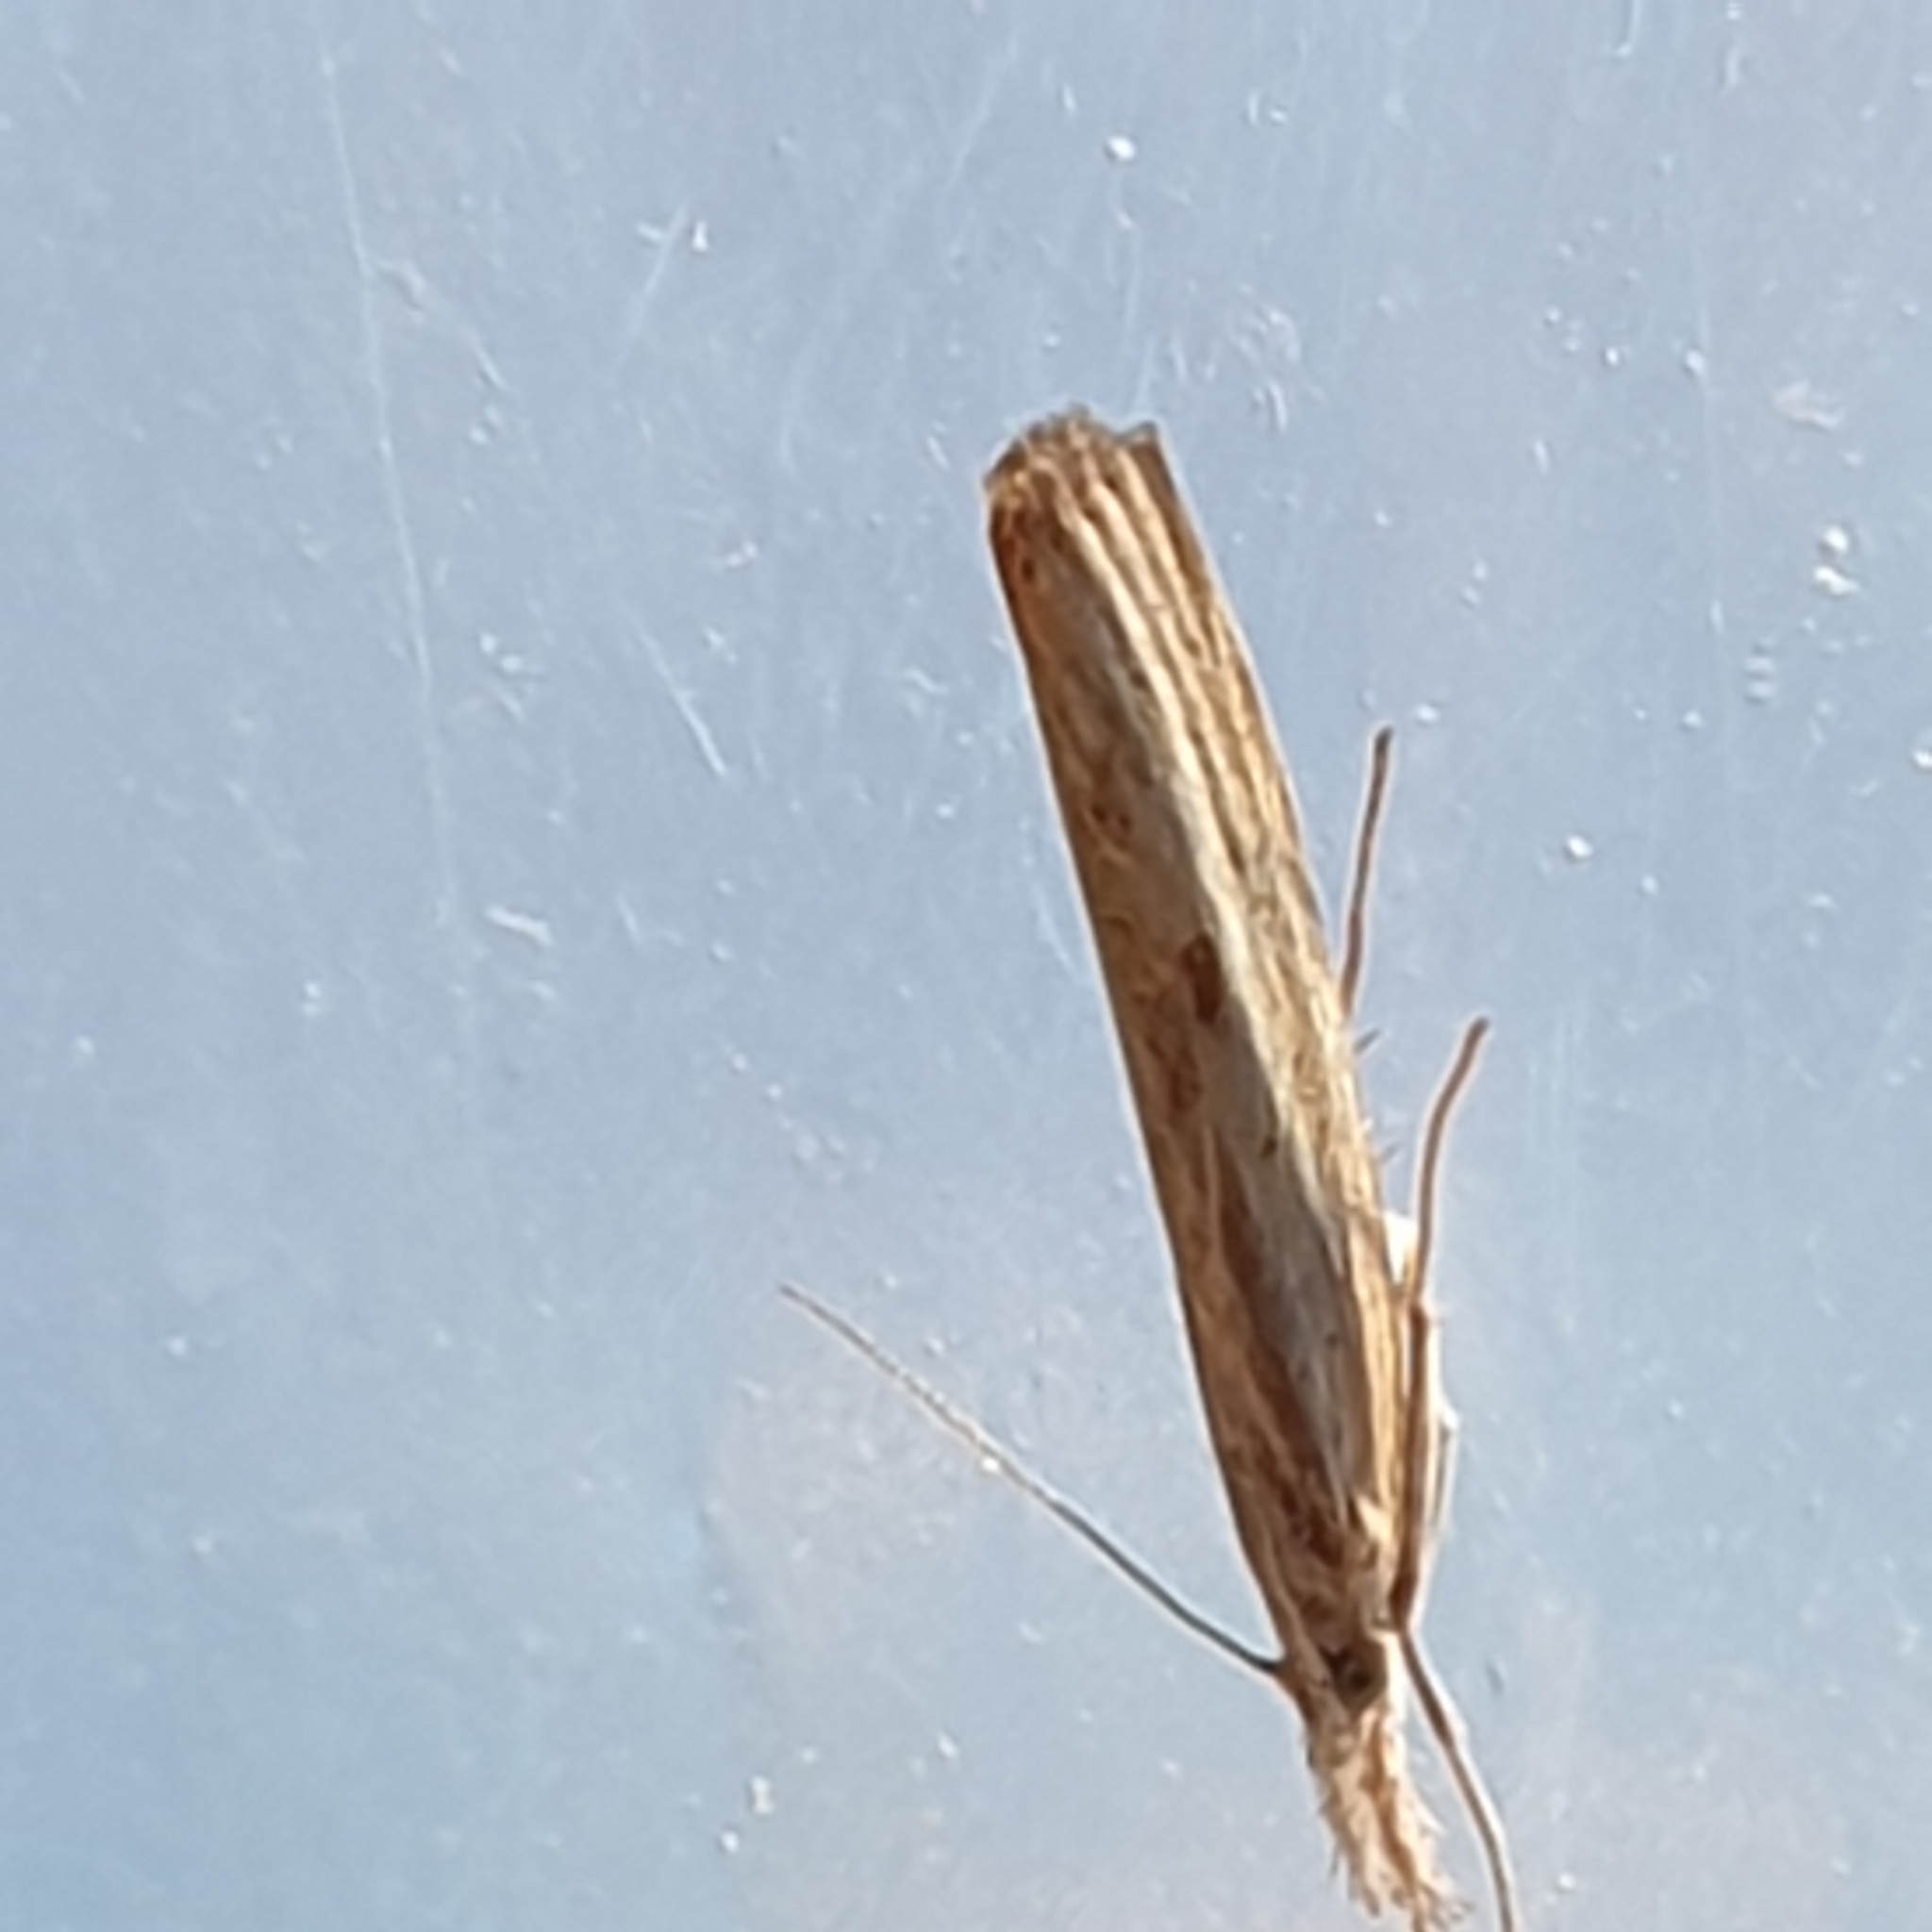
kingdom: Animalia
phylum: Arthropoda
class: Insecta
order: Lepidoptera
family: Crambidae
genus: Agriphila
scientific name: Agriphila inquinatella
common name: Barred grass-veneer
